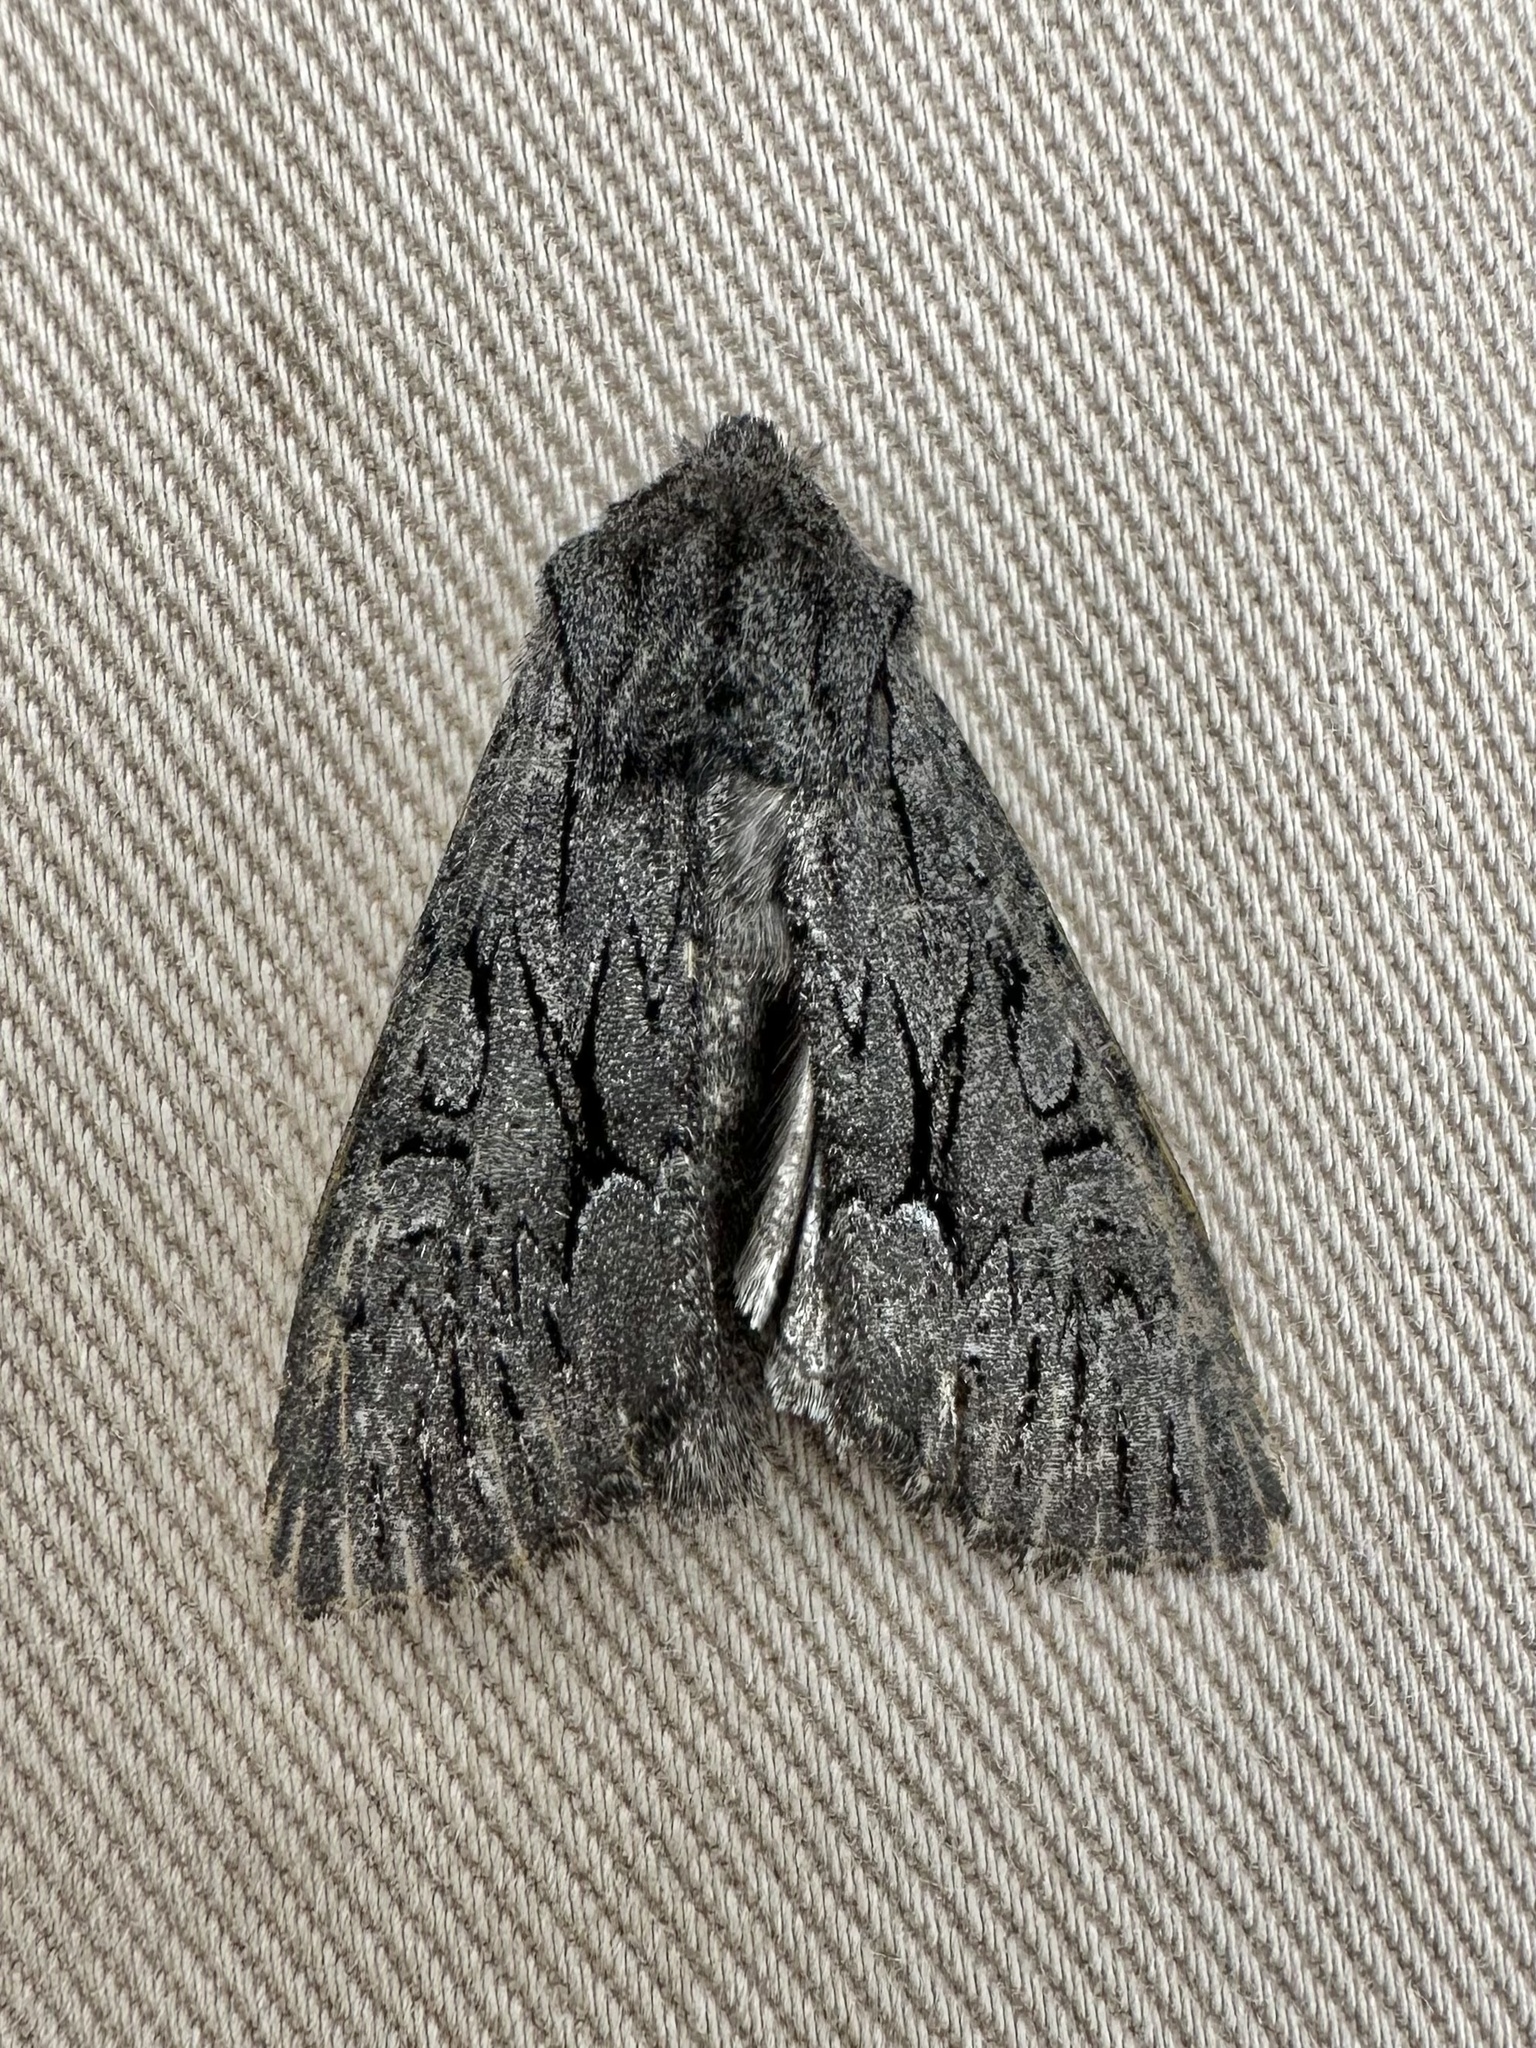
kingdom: Animalia
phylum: Arthropoda
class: Insecta
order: Lepidoptera
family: Noctuidae
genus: Fishia
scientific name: Fishia yosemitae
